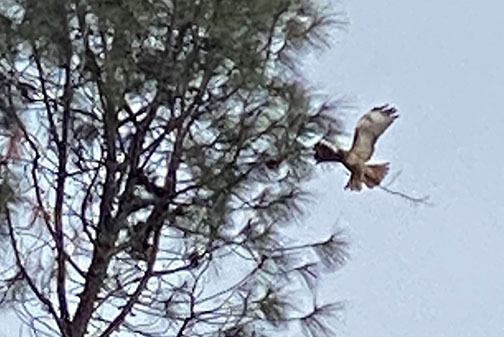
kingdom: Animalia
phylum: Chordata
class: Aves
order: Accipitriformes
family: Accipitridae
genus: Buteo
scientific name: Buteo jamaicensis
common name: Red-tailed hawk
